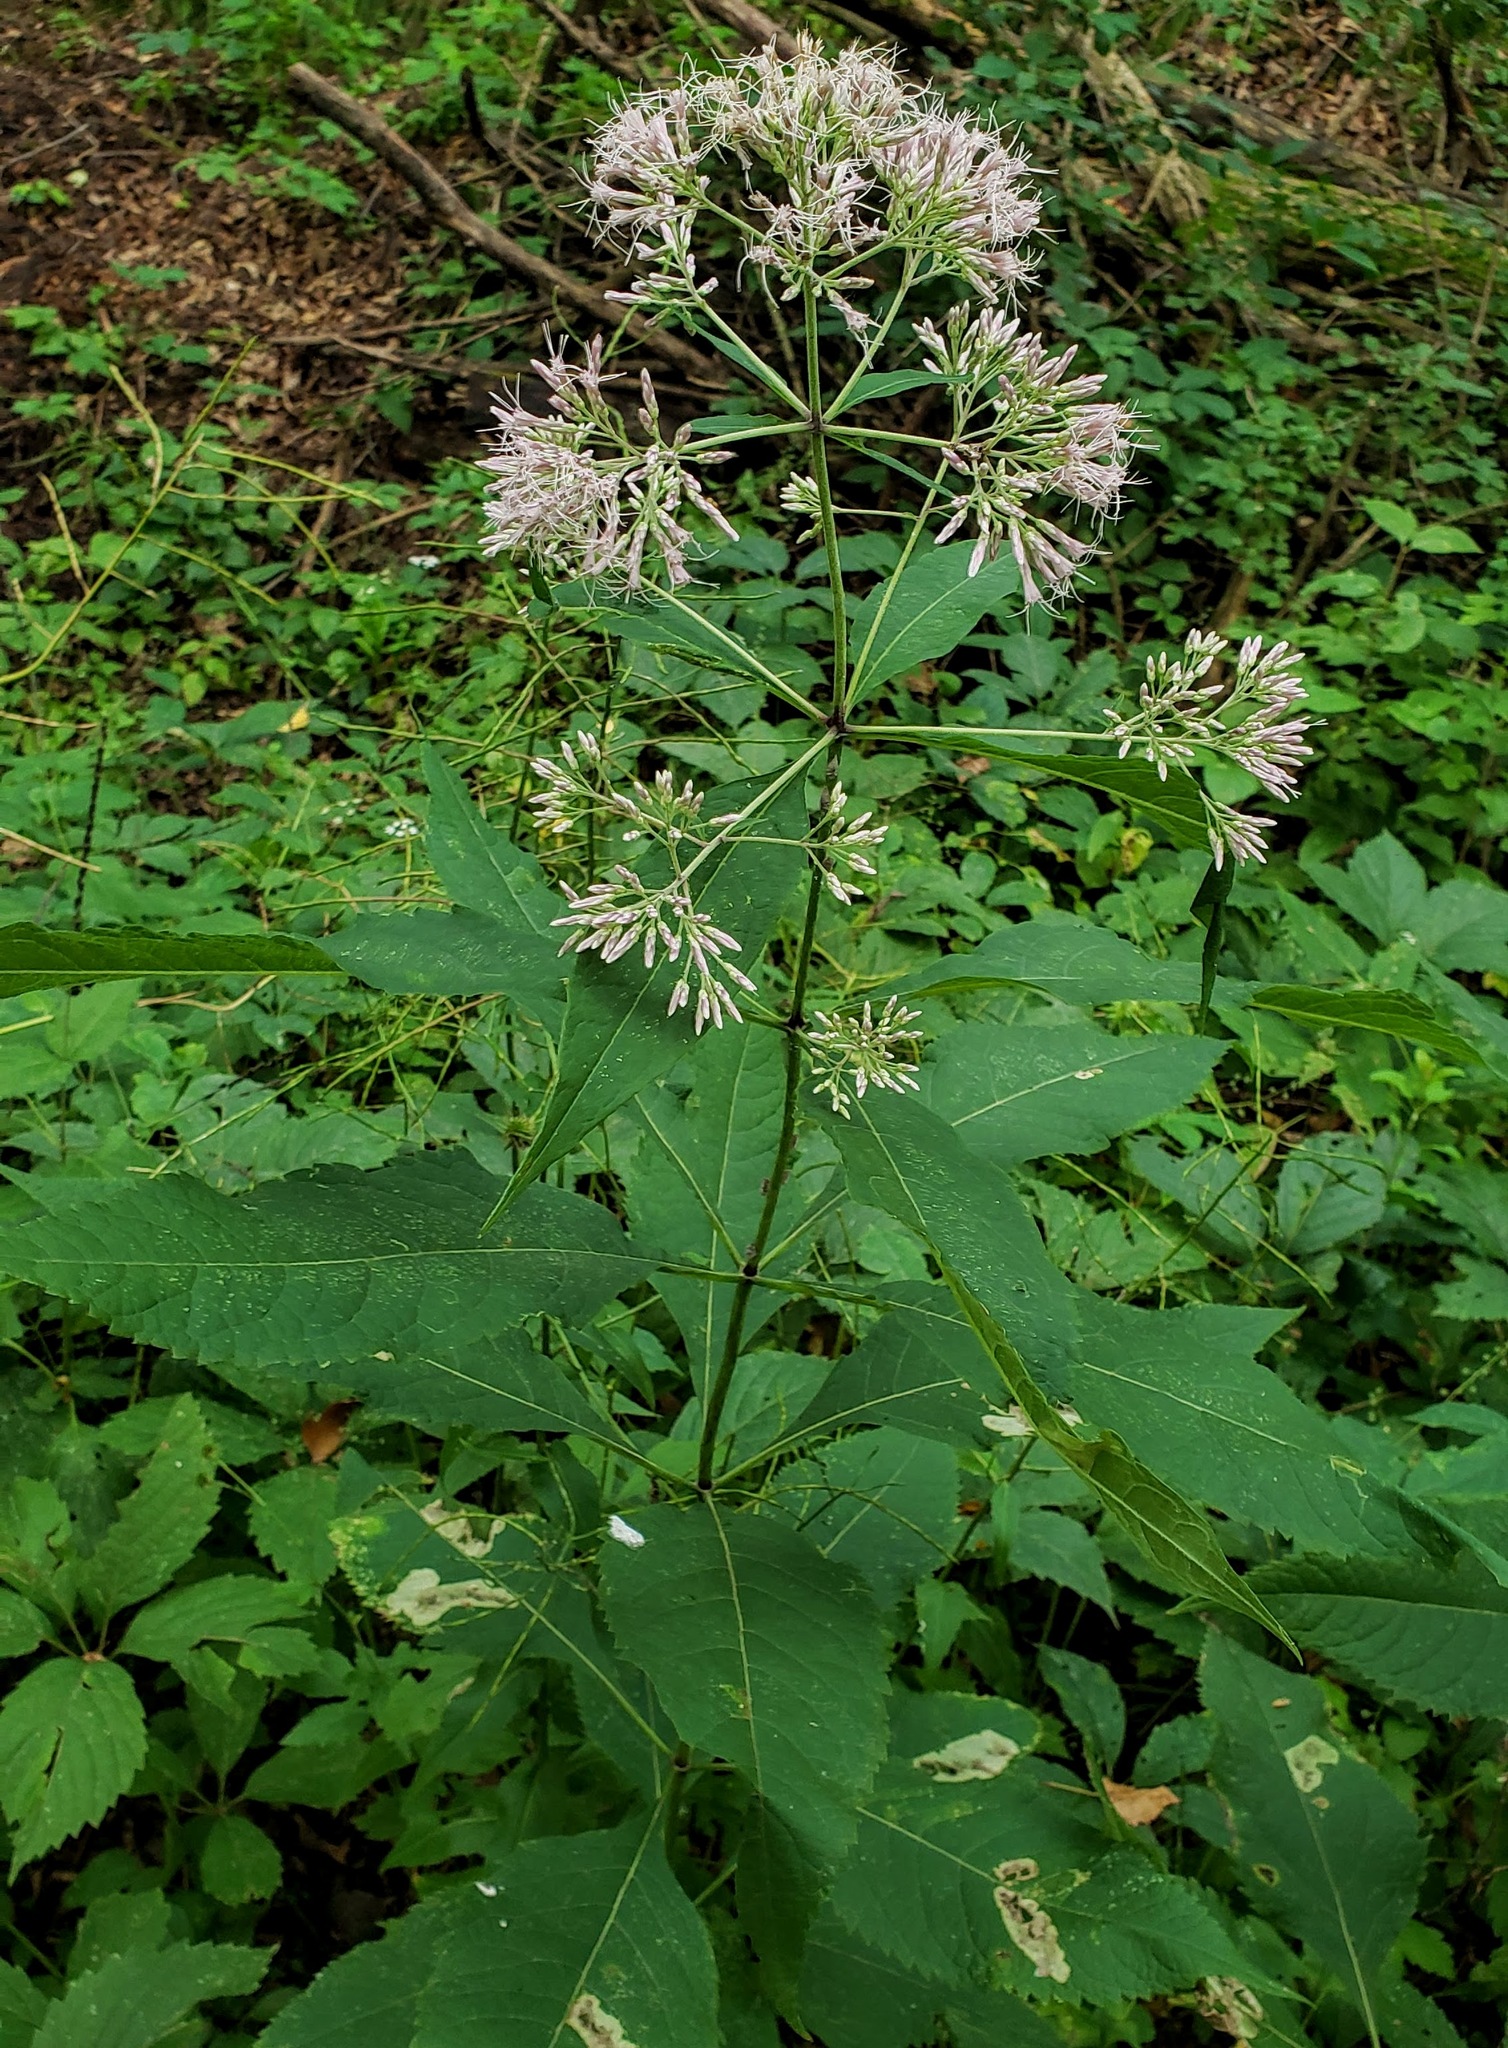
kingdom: Plantae
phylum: Tracheophyta
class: Magnoliopsida
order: Asterales
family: Asteraceae
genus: Eutrochium
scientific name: Eutrochium purpureum
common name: Gravelroot
